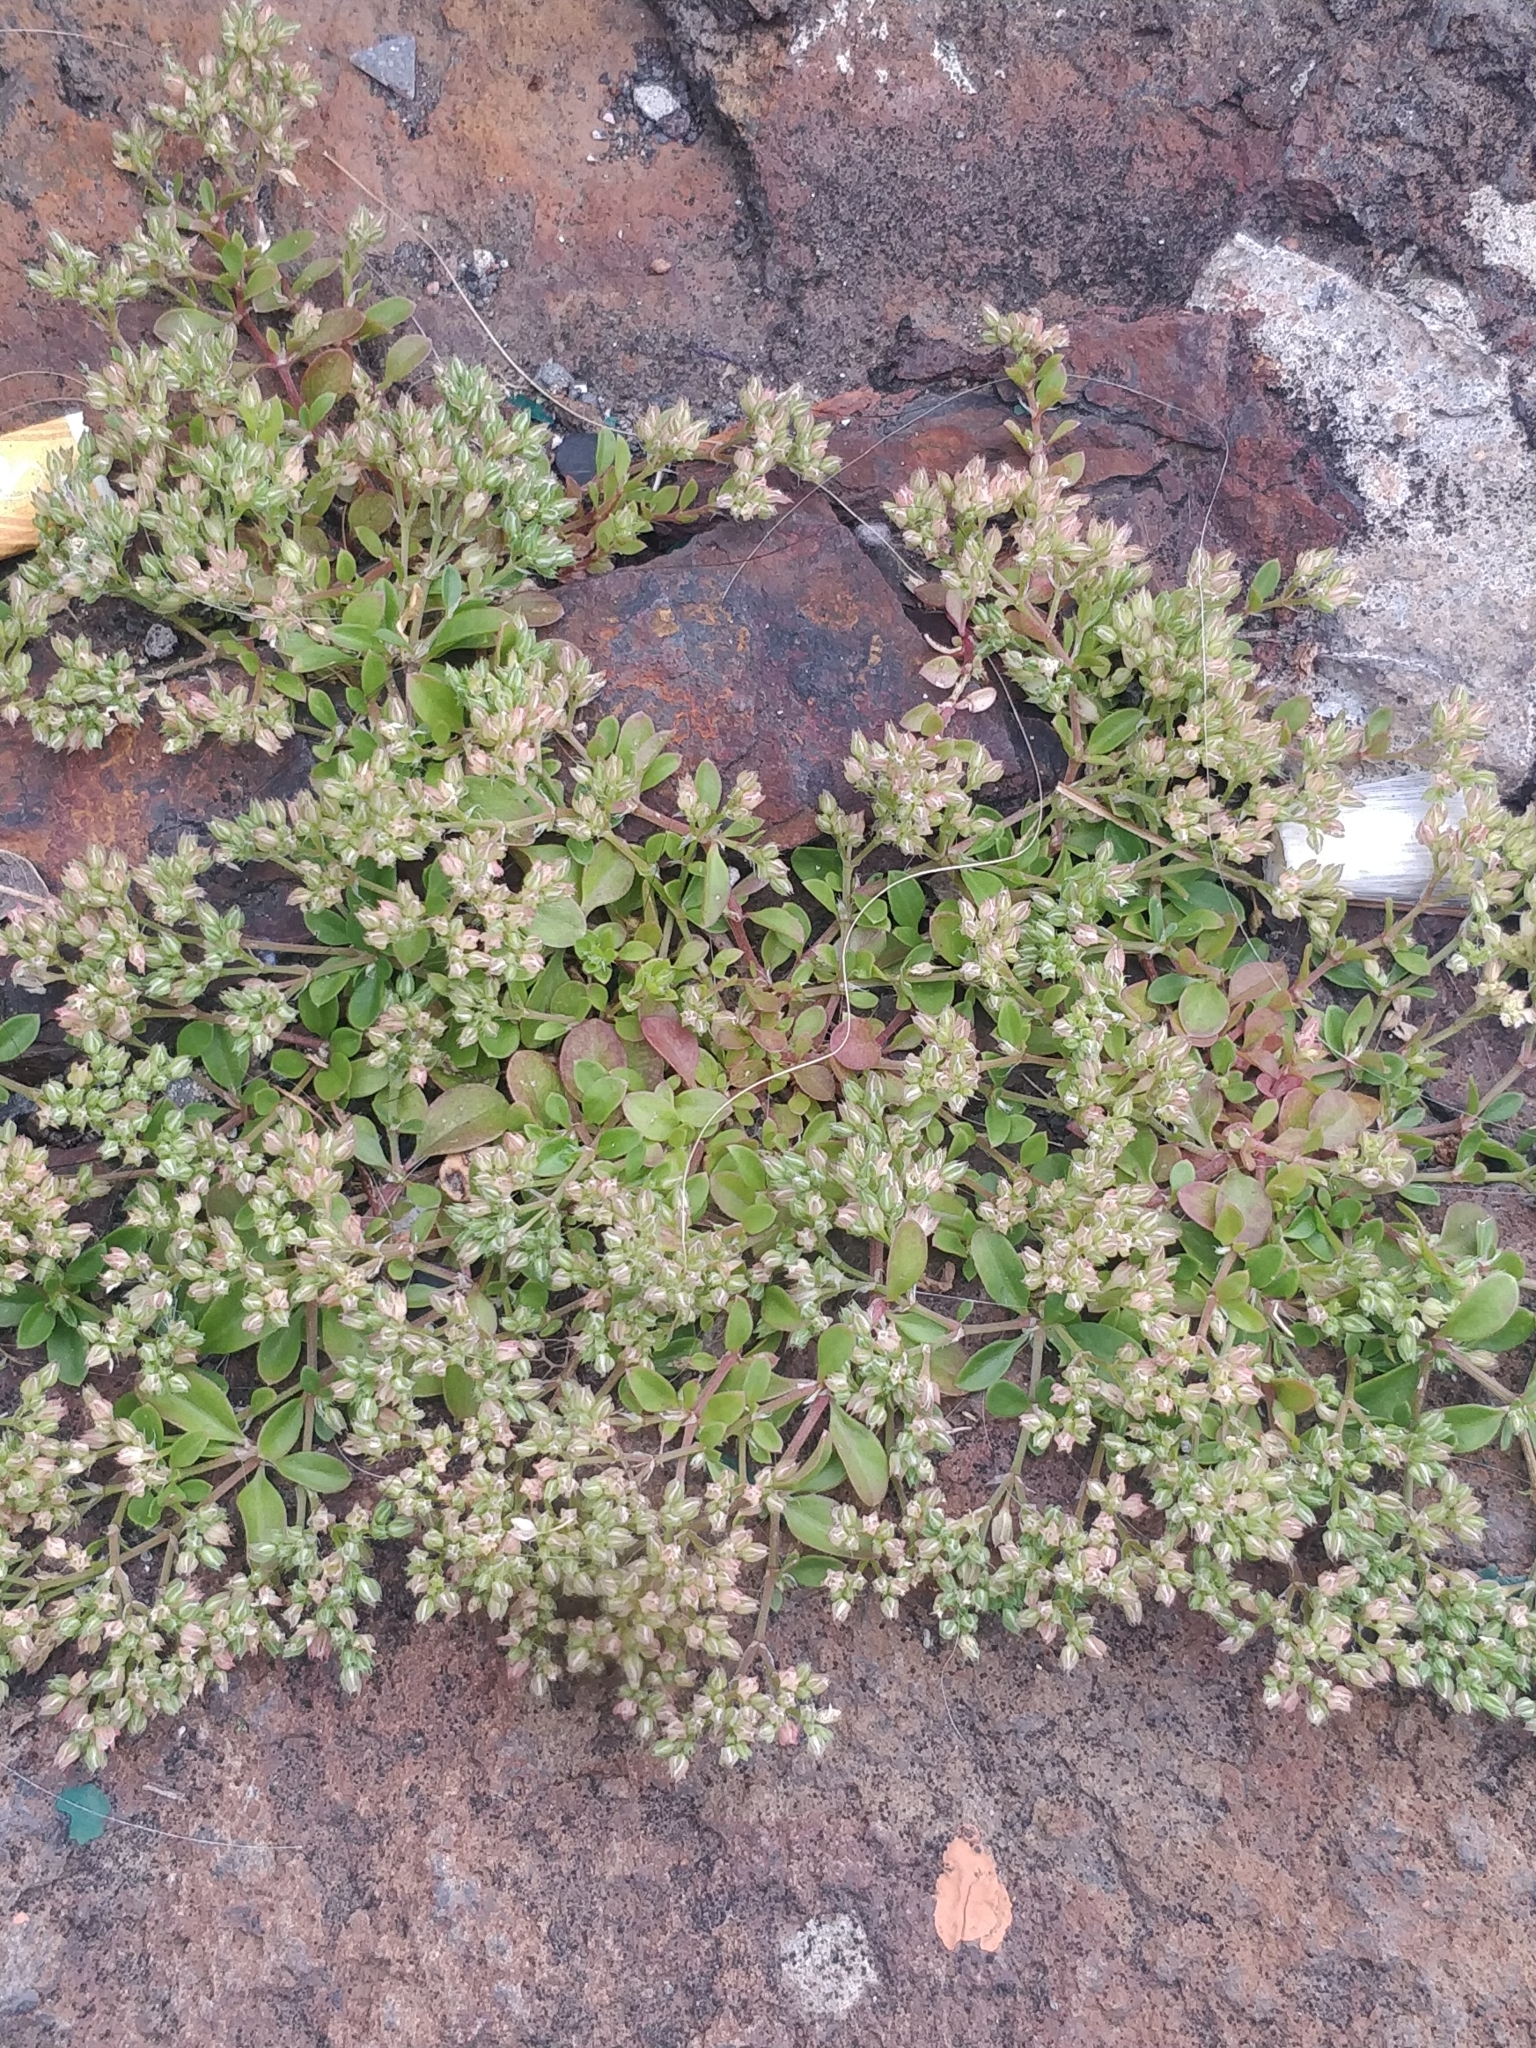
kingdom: Plantae
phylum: Tracheophyta
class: Magnoliopsida
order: Caryophyllales
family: Caryophyllaceae
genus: Polycarpon
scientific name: Polycarpon tetraphyllum
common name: Four-leaved all-seed
